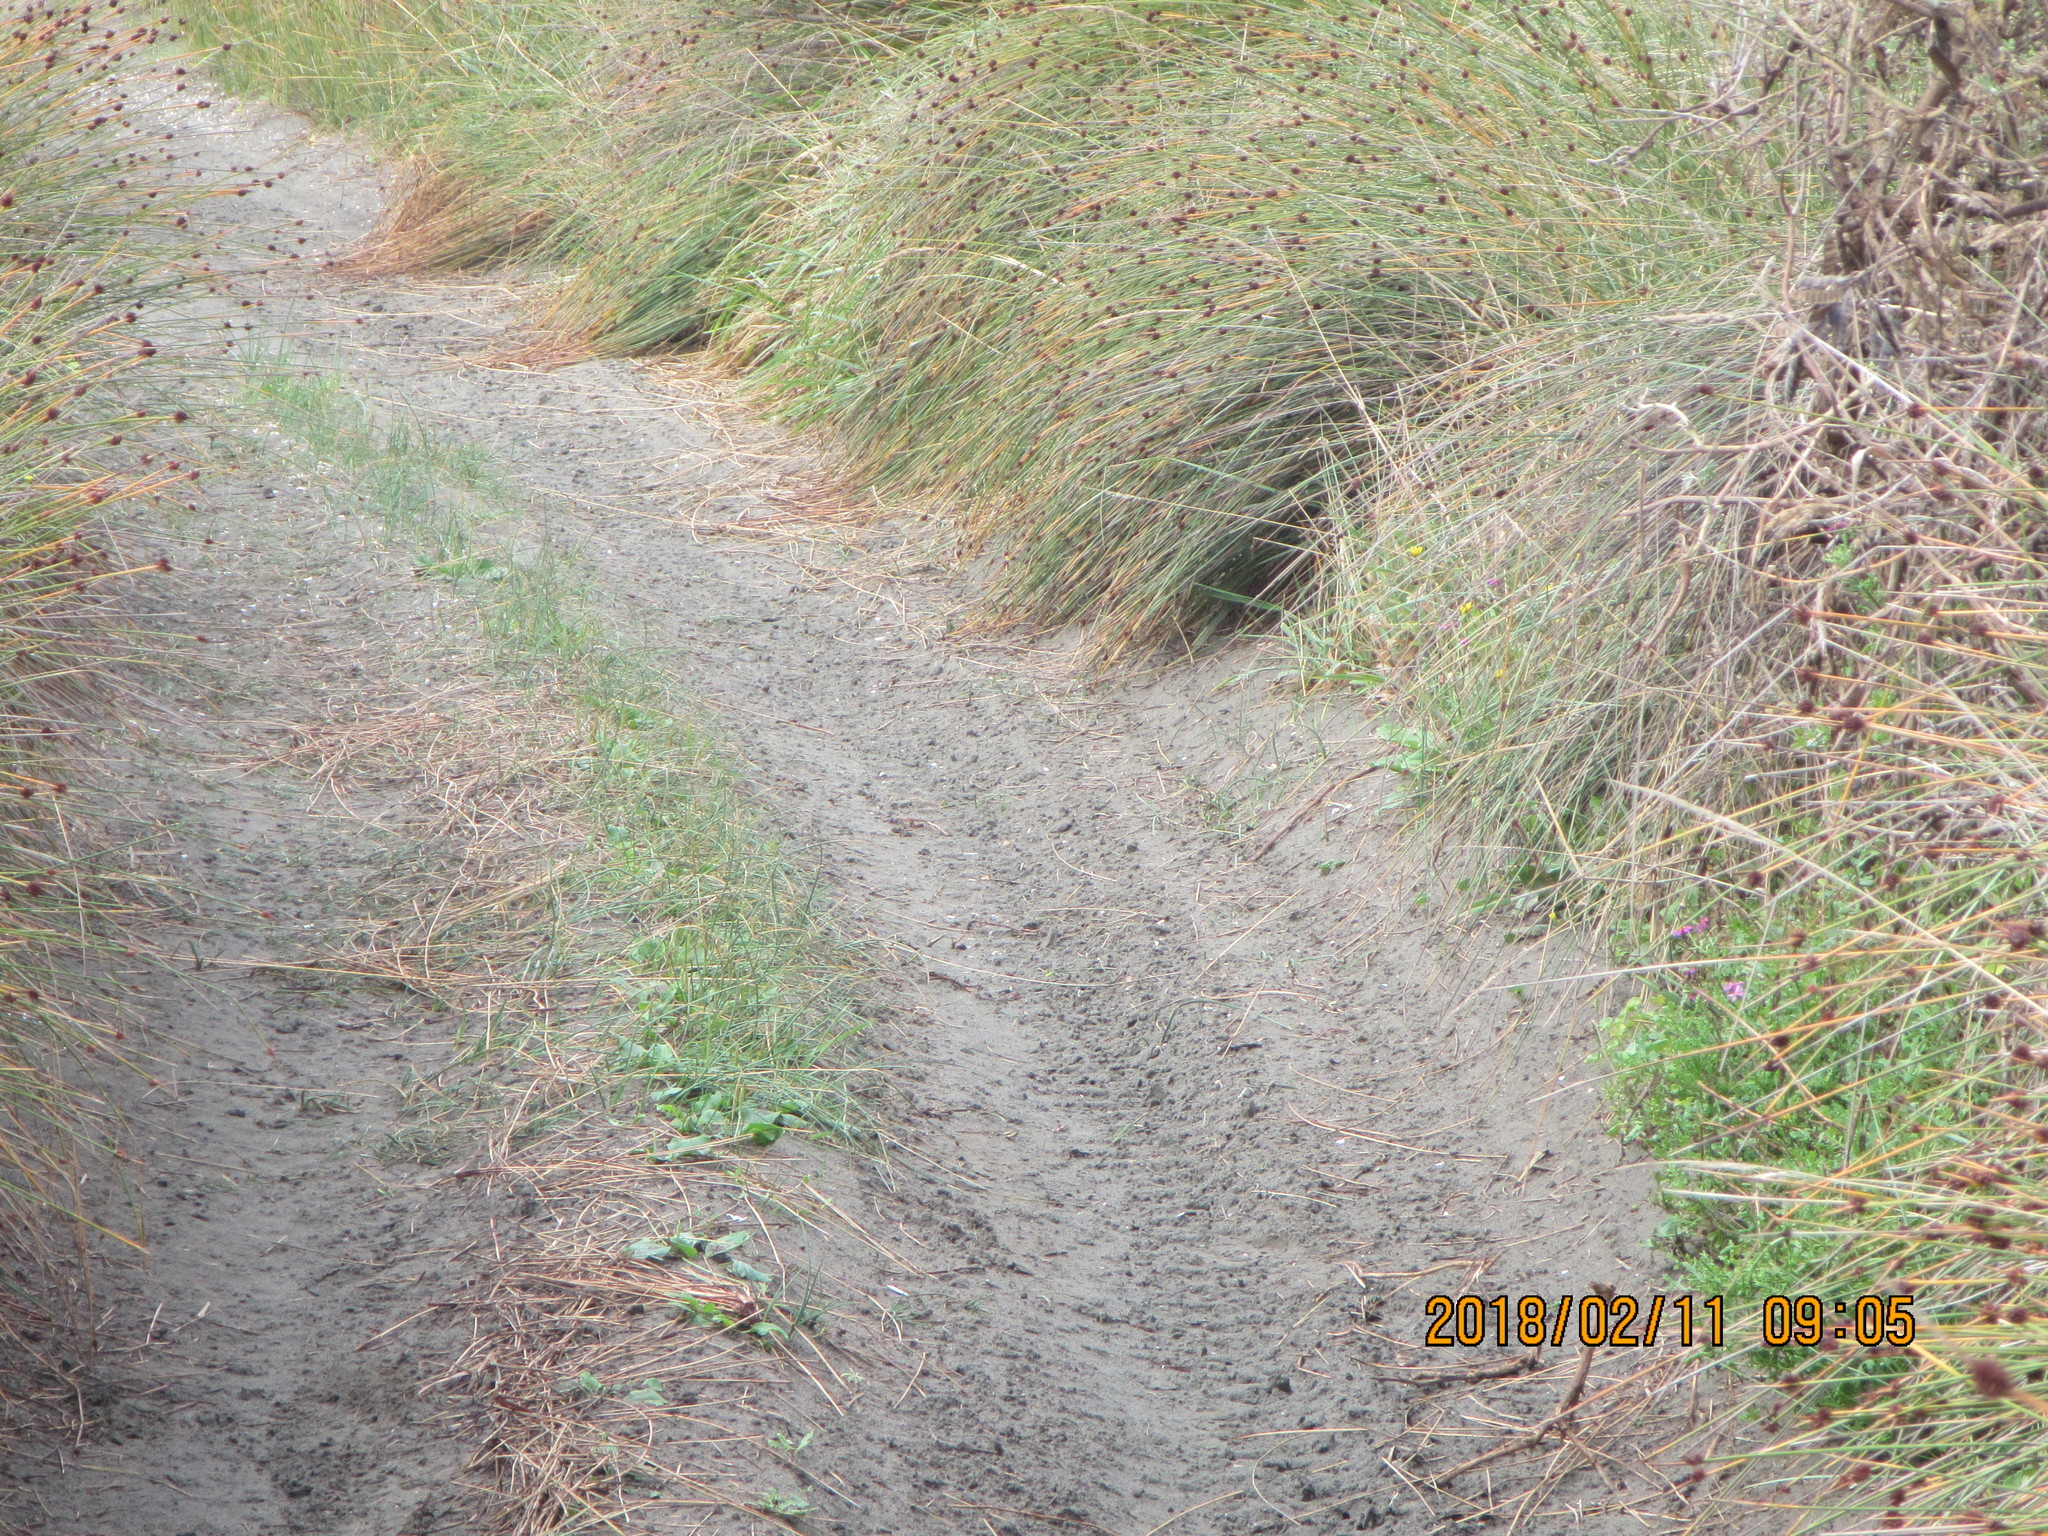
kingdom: Plantae
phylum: Tracheophyta
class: Magnoliopsida
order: Asterales
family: Asteraceae
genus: Senecio
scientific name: Senecio elegans
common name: Purple groundsel
